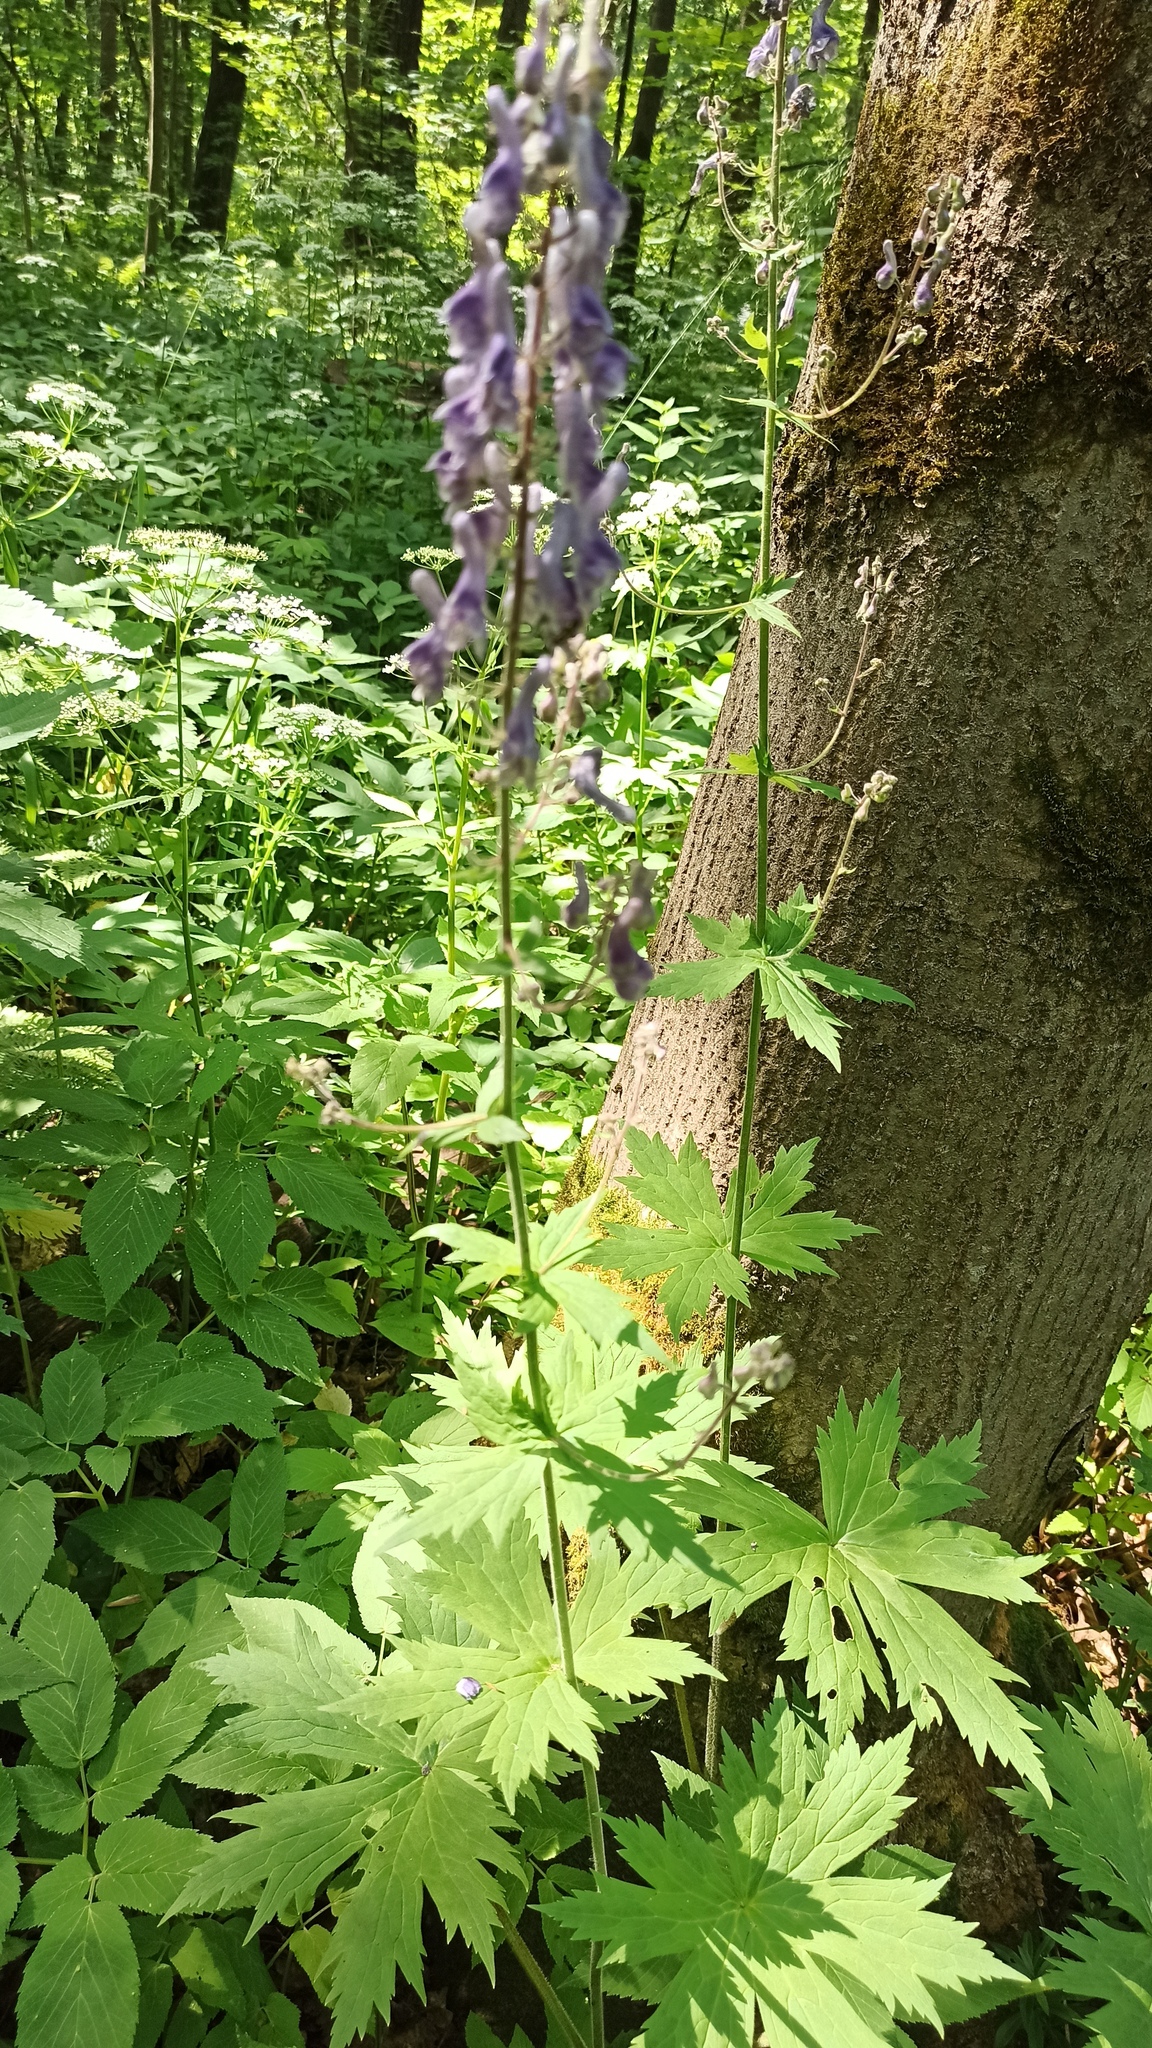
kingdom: Plantae
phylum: Tracheophyta
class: Magnoliopsida
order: Ranunculales
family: Ranunculaceae
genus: Aconitum
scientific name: Aconitum septentrionale
